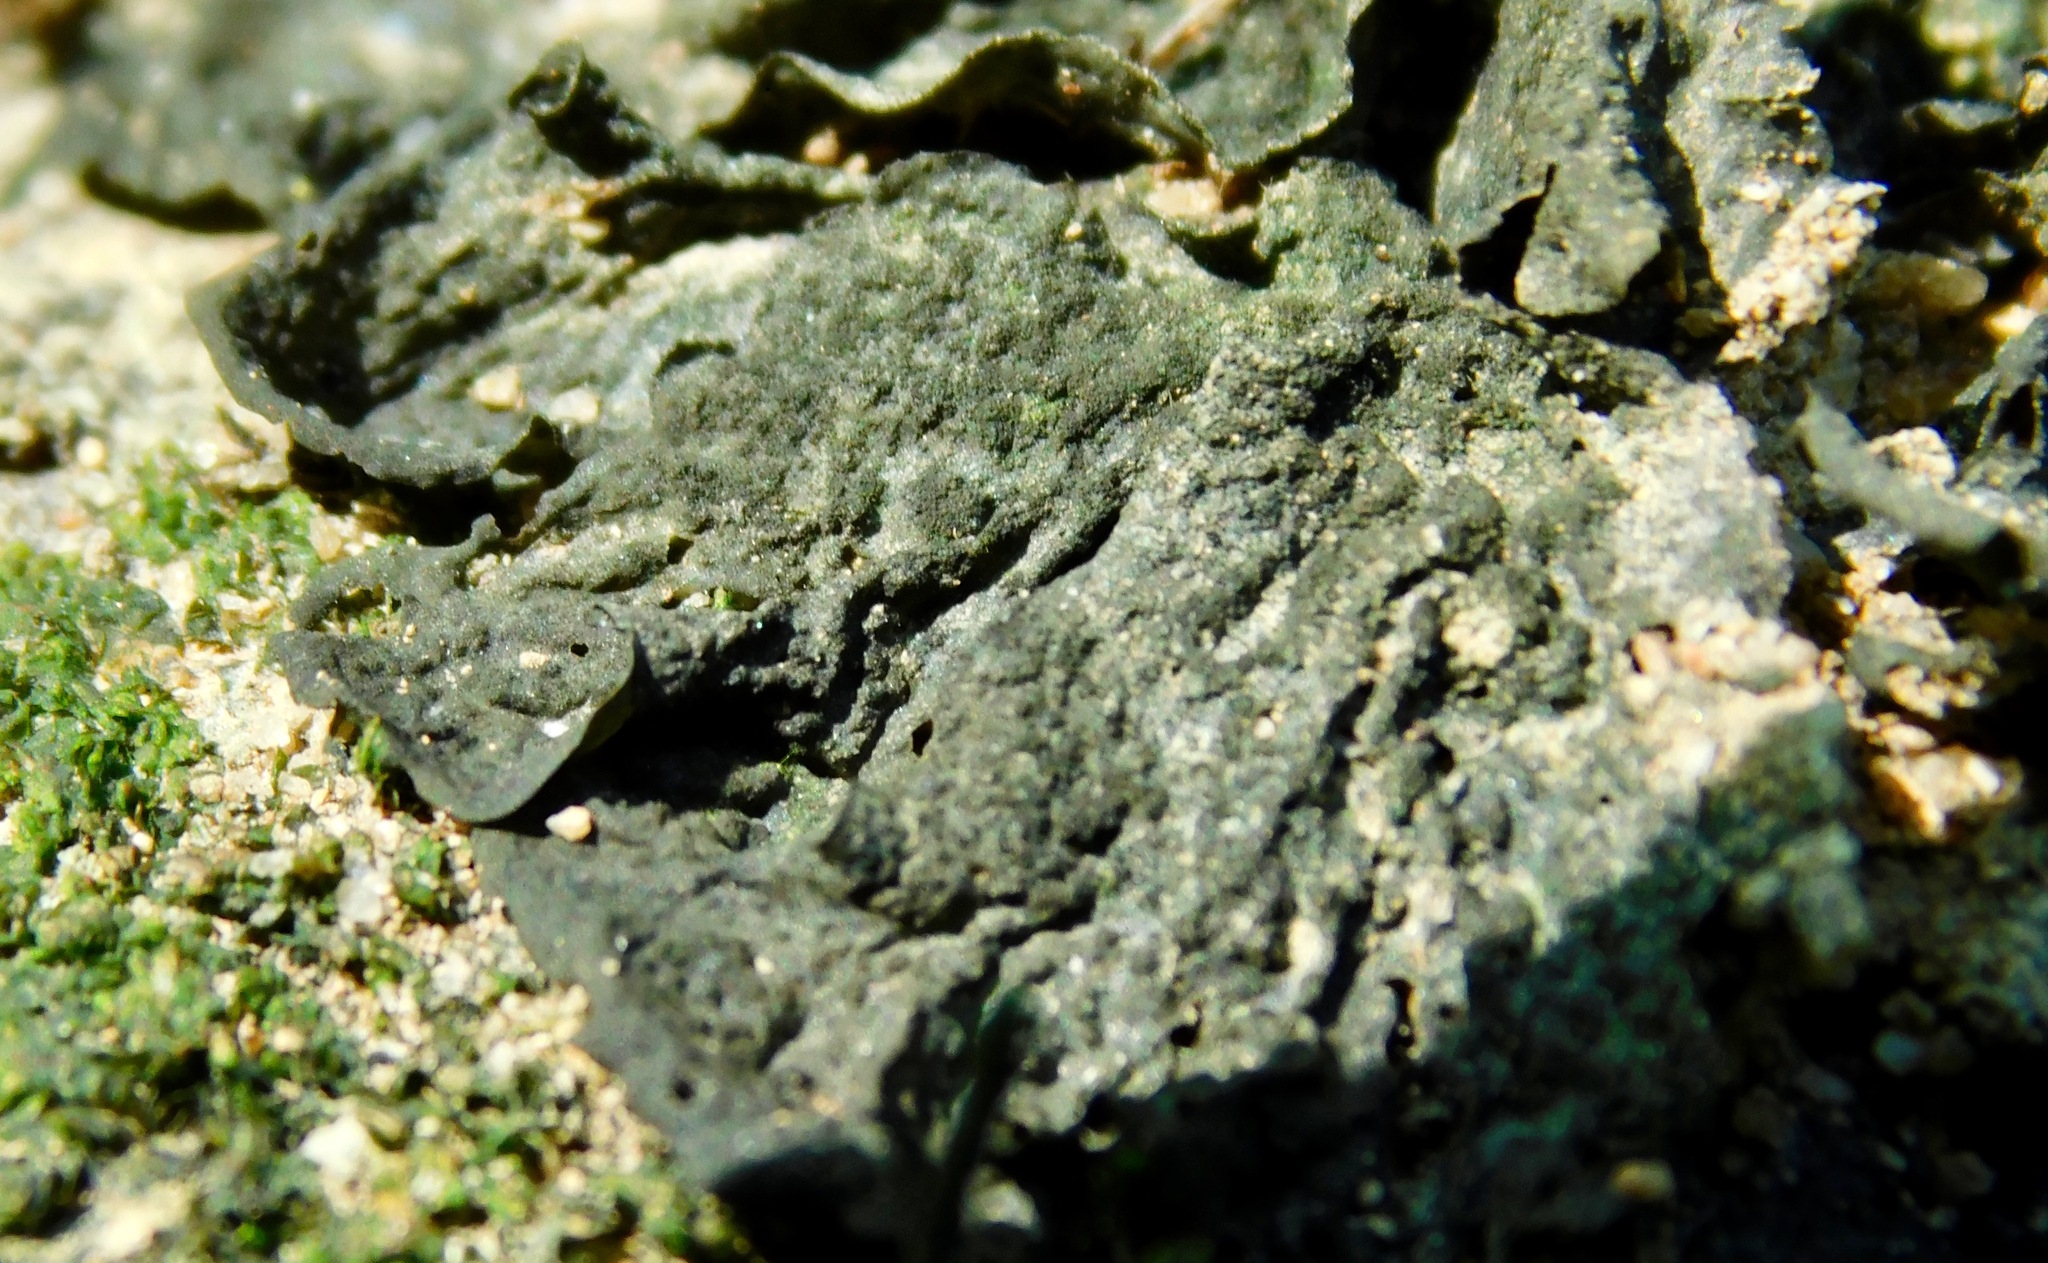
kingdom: Fungi
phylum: Ascomycota
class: Lecanoromycetes
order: Peltigerales
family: Collemataceae
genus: Collema
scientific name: Collema furfuraceum
